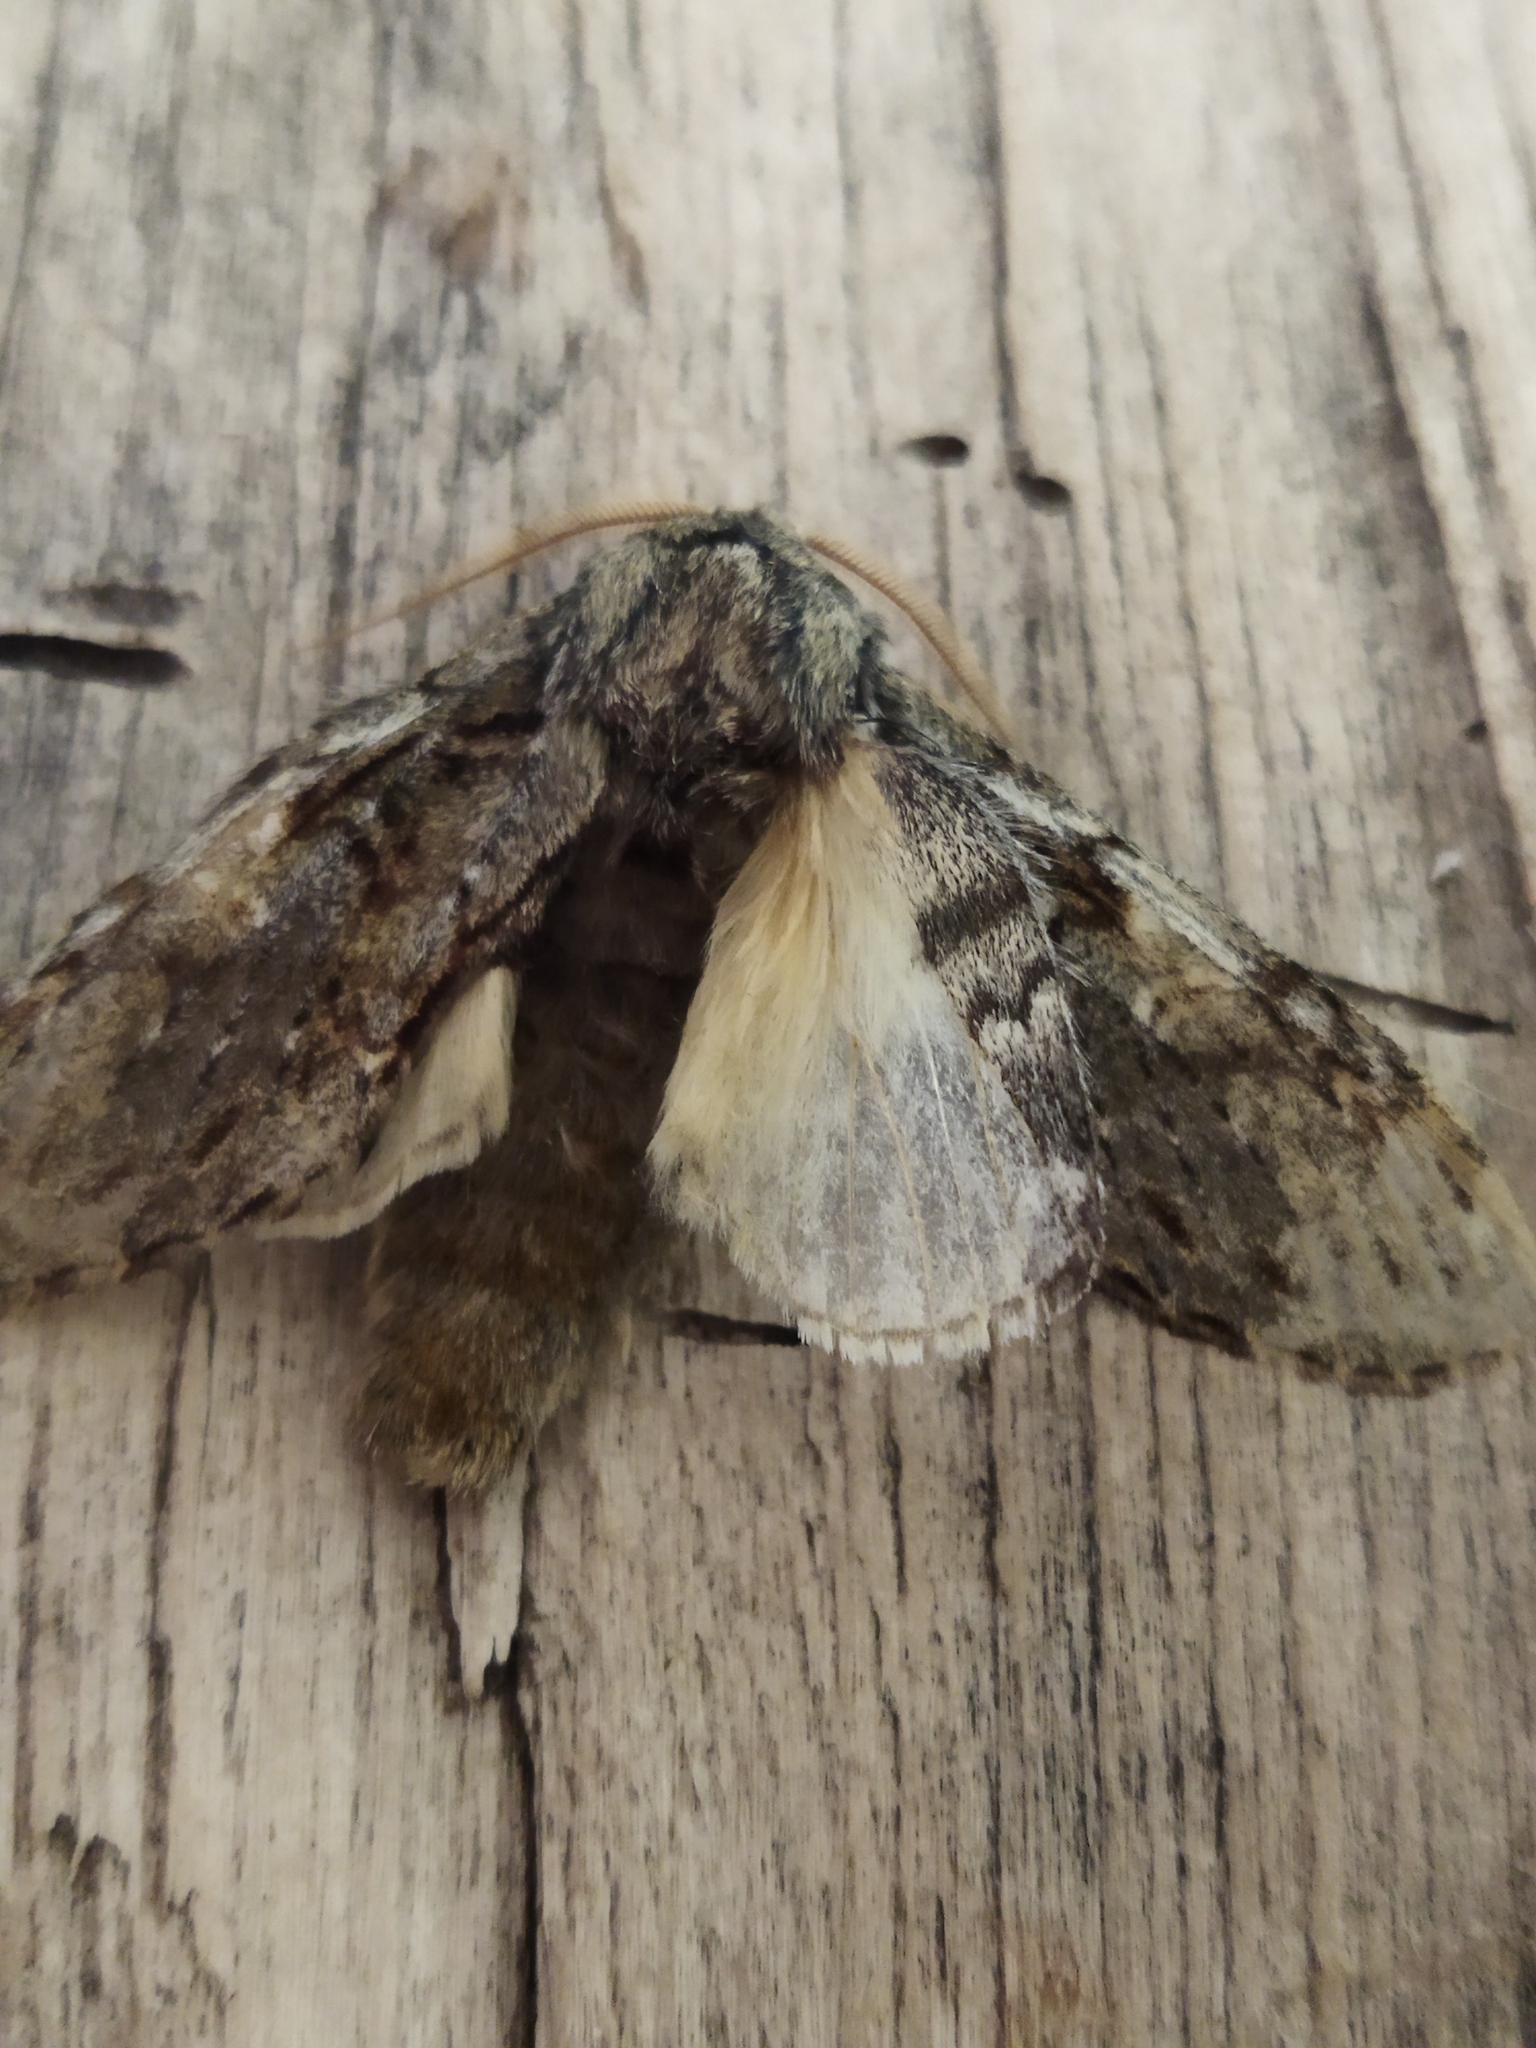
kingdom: Animalia
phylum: Arthropoda
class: Insecta
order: Lepidoptera
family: Notodontidae
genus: Peridea
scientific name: Peridea korbi
